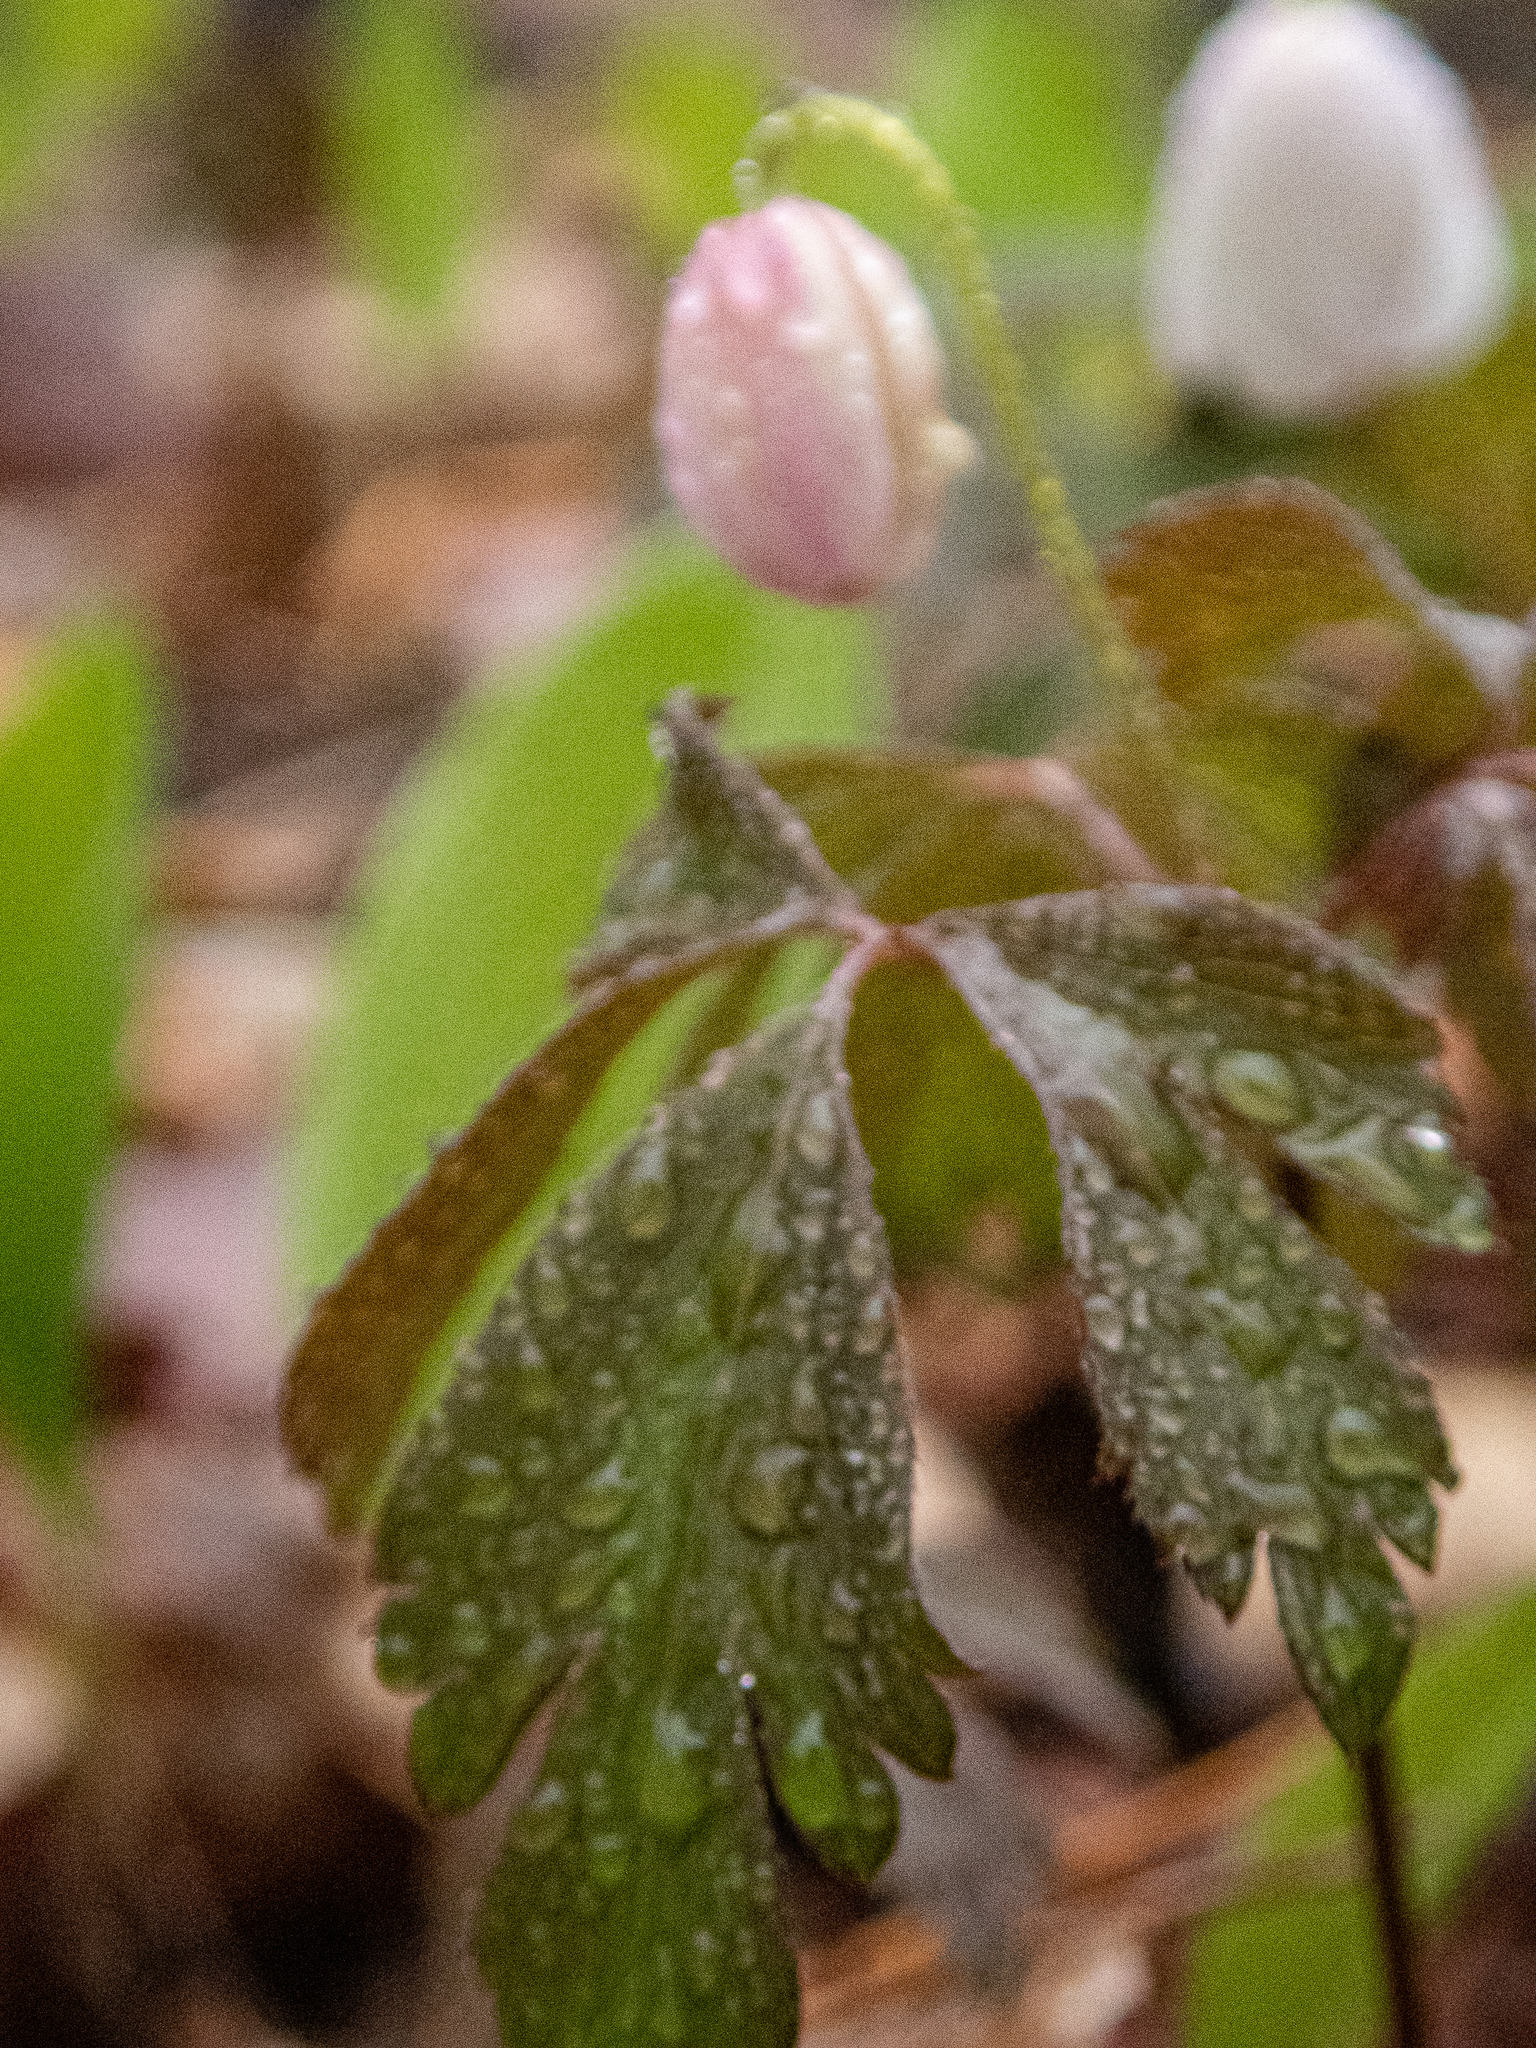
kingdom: Plantae
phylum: Tracheophyta
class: Magnoliopsida
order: Ranunculales
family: Ranunculaceae
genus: Anemone
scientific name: Anemone quinquefolia
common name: Wood anemone
